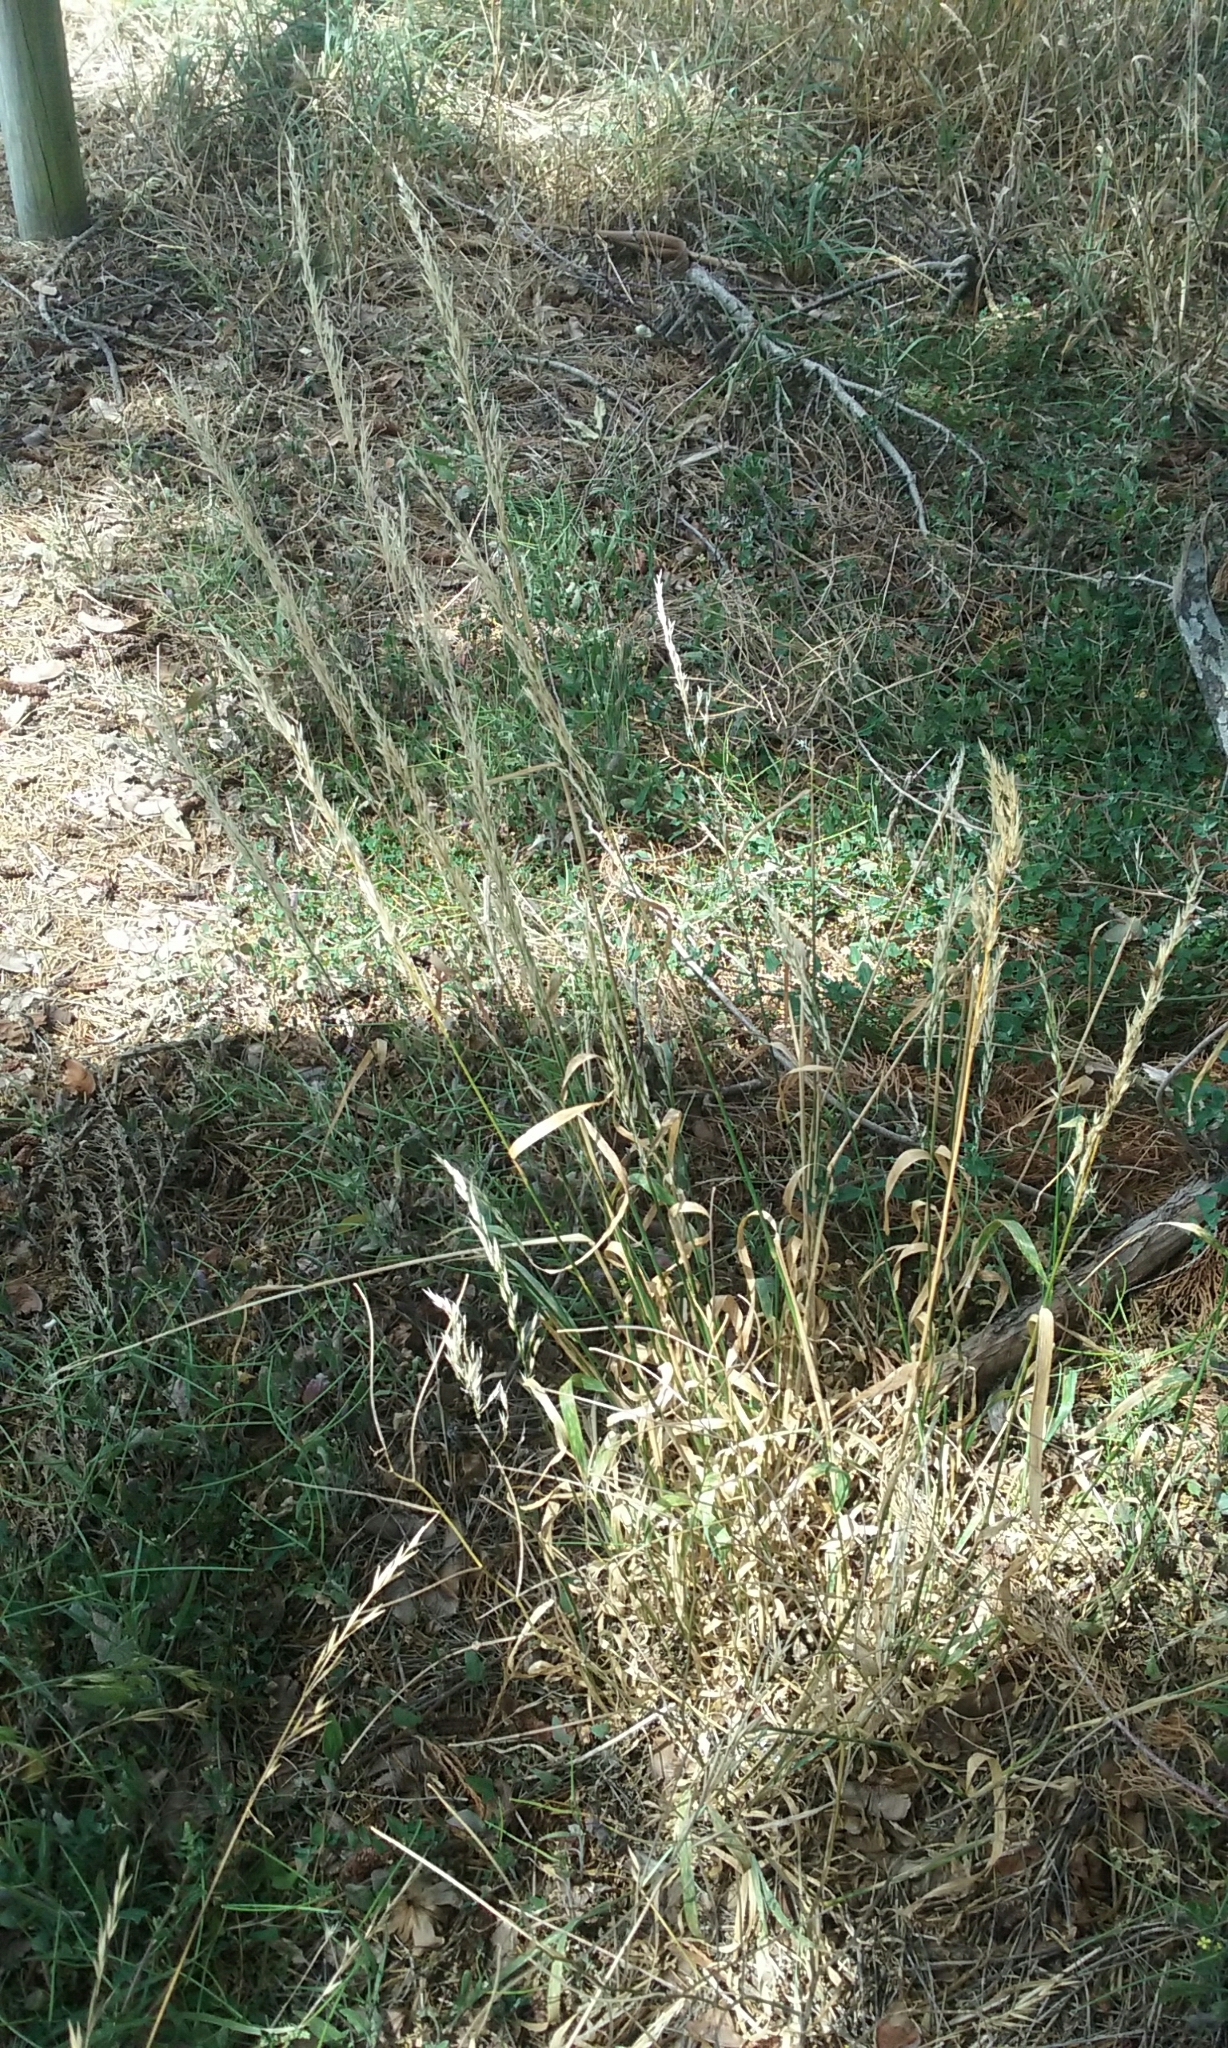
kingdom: Plantae
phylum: Tracheophyta
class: Liliopsida
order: Poales
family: Poaceae
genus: Arrhenatherum
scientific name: Arrhenatherum elatius
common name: Tall oatgrass
